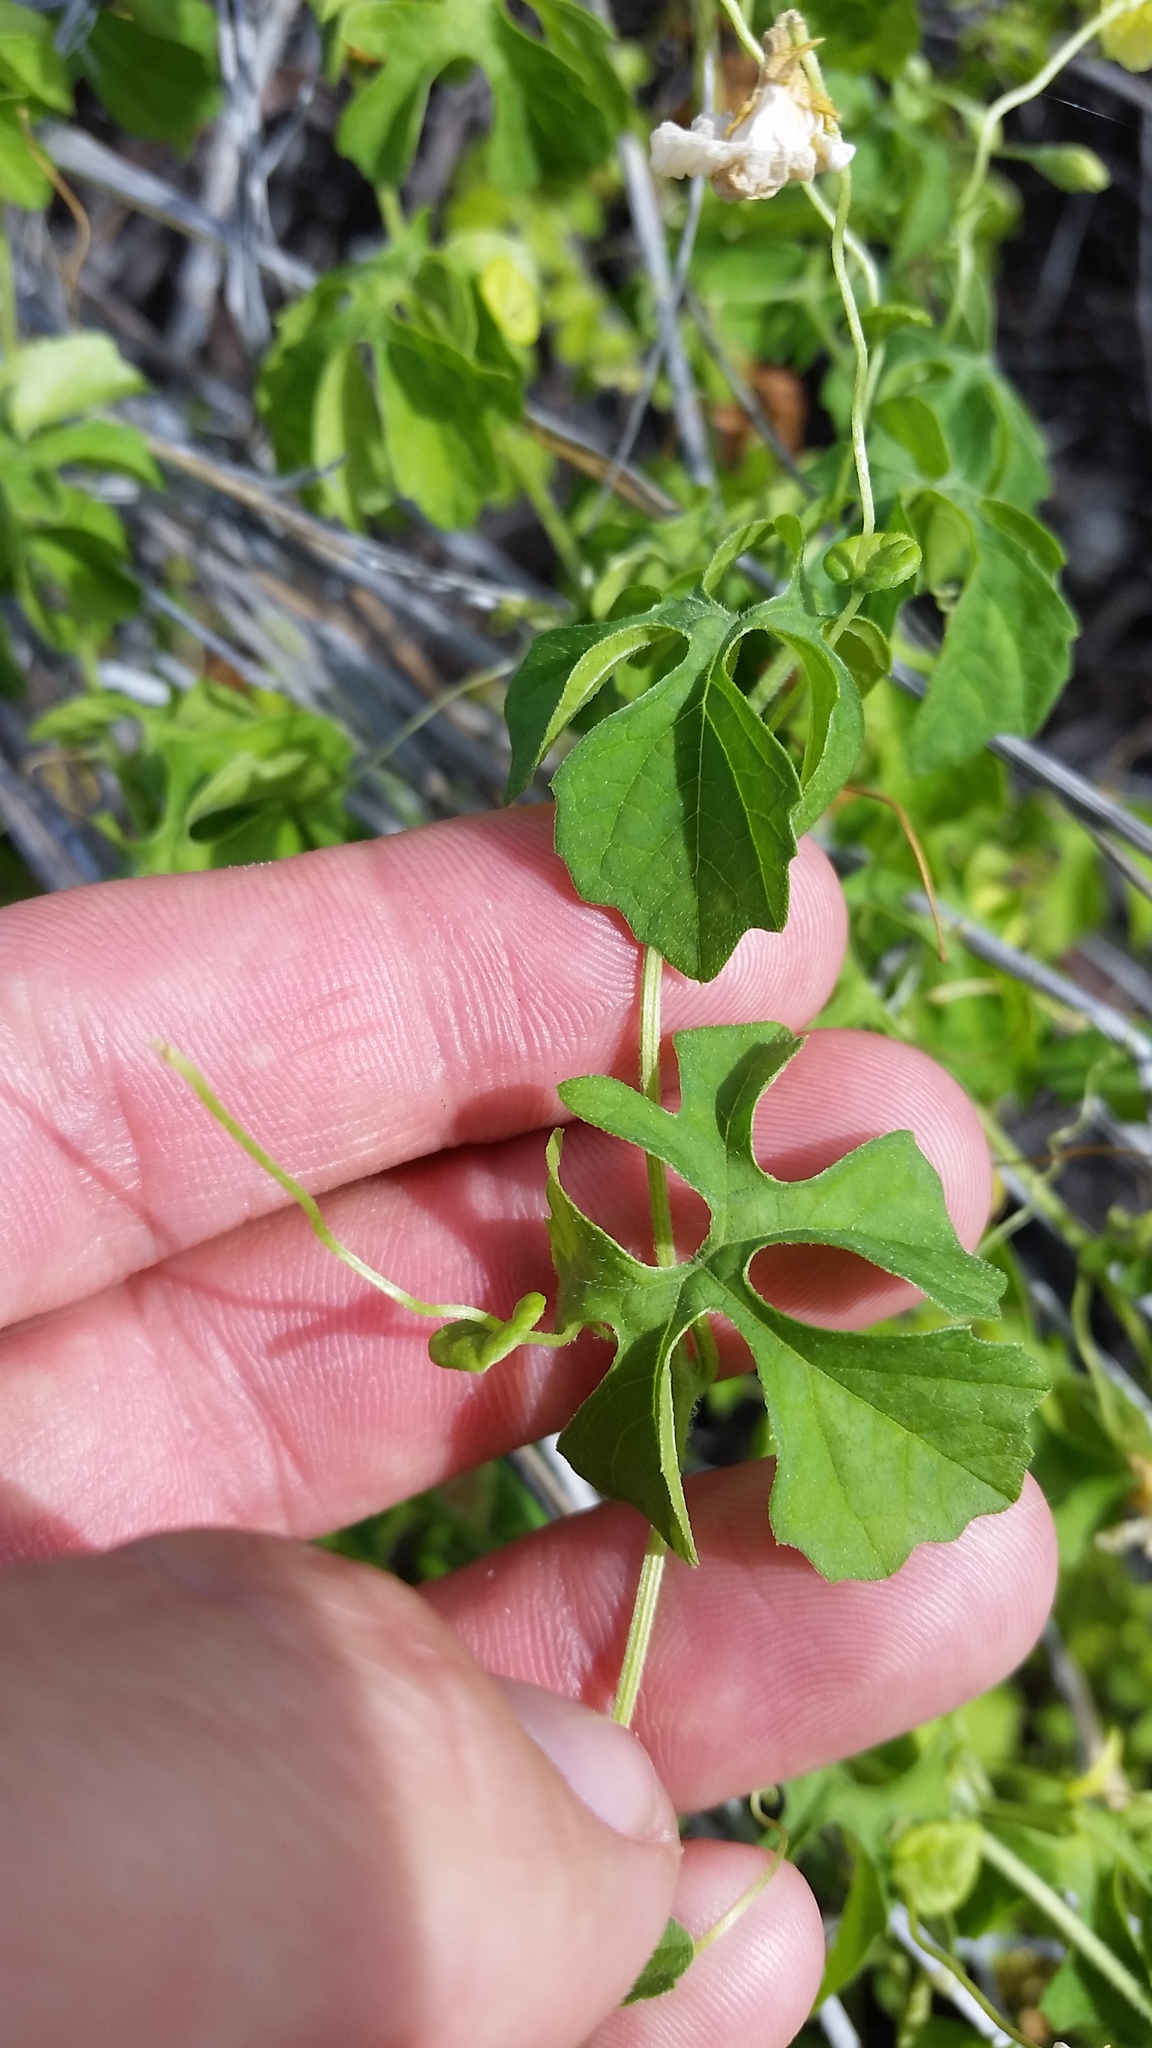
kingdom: Plantae
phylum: Tracheophyta
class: Magnoliopsida
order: Cucurbitales
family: Cucurbitaceae
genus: Momordica
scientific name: Momordica charantia
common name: Balsampear
